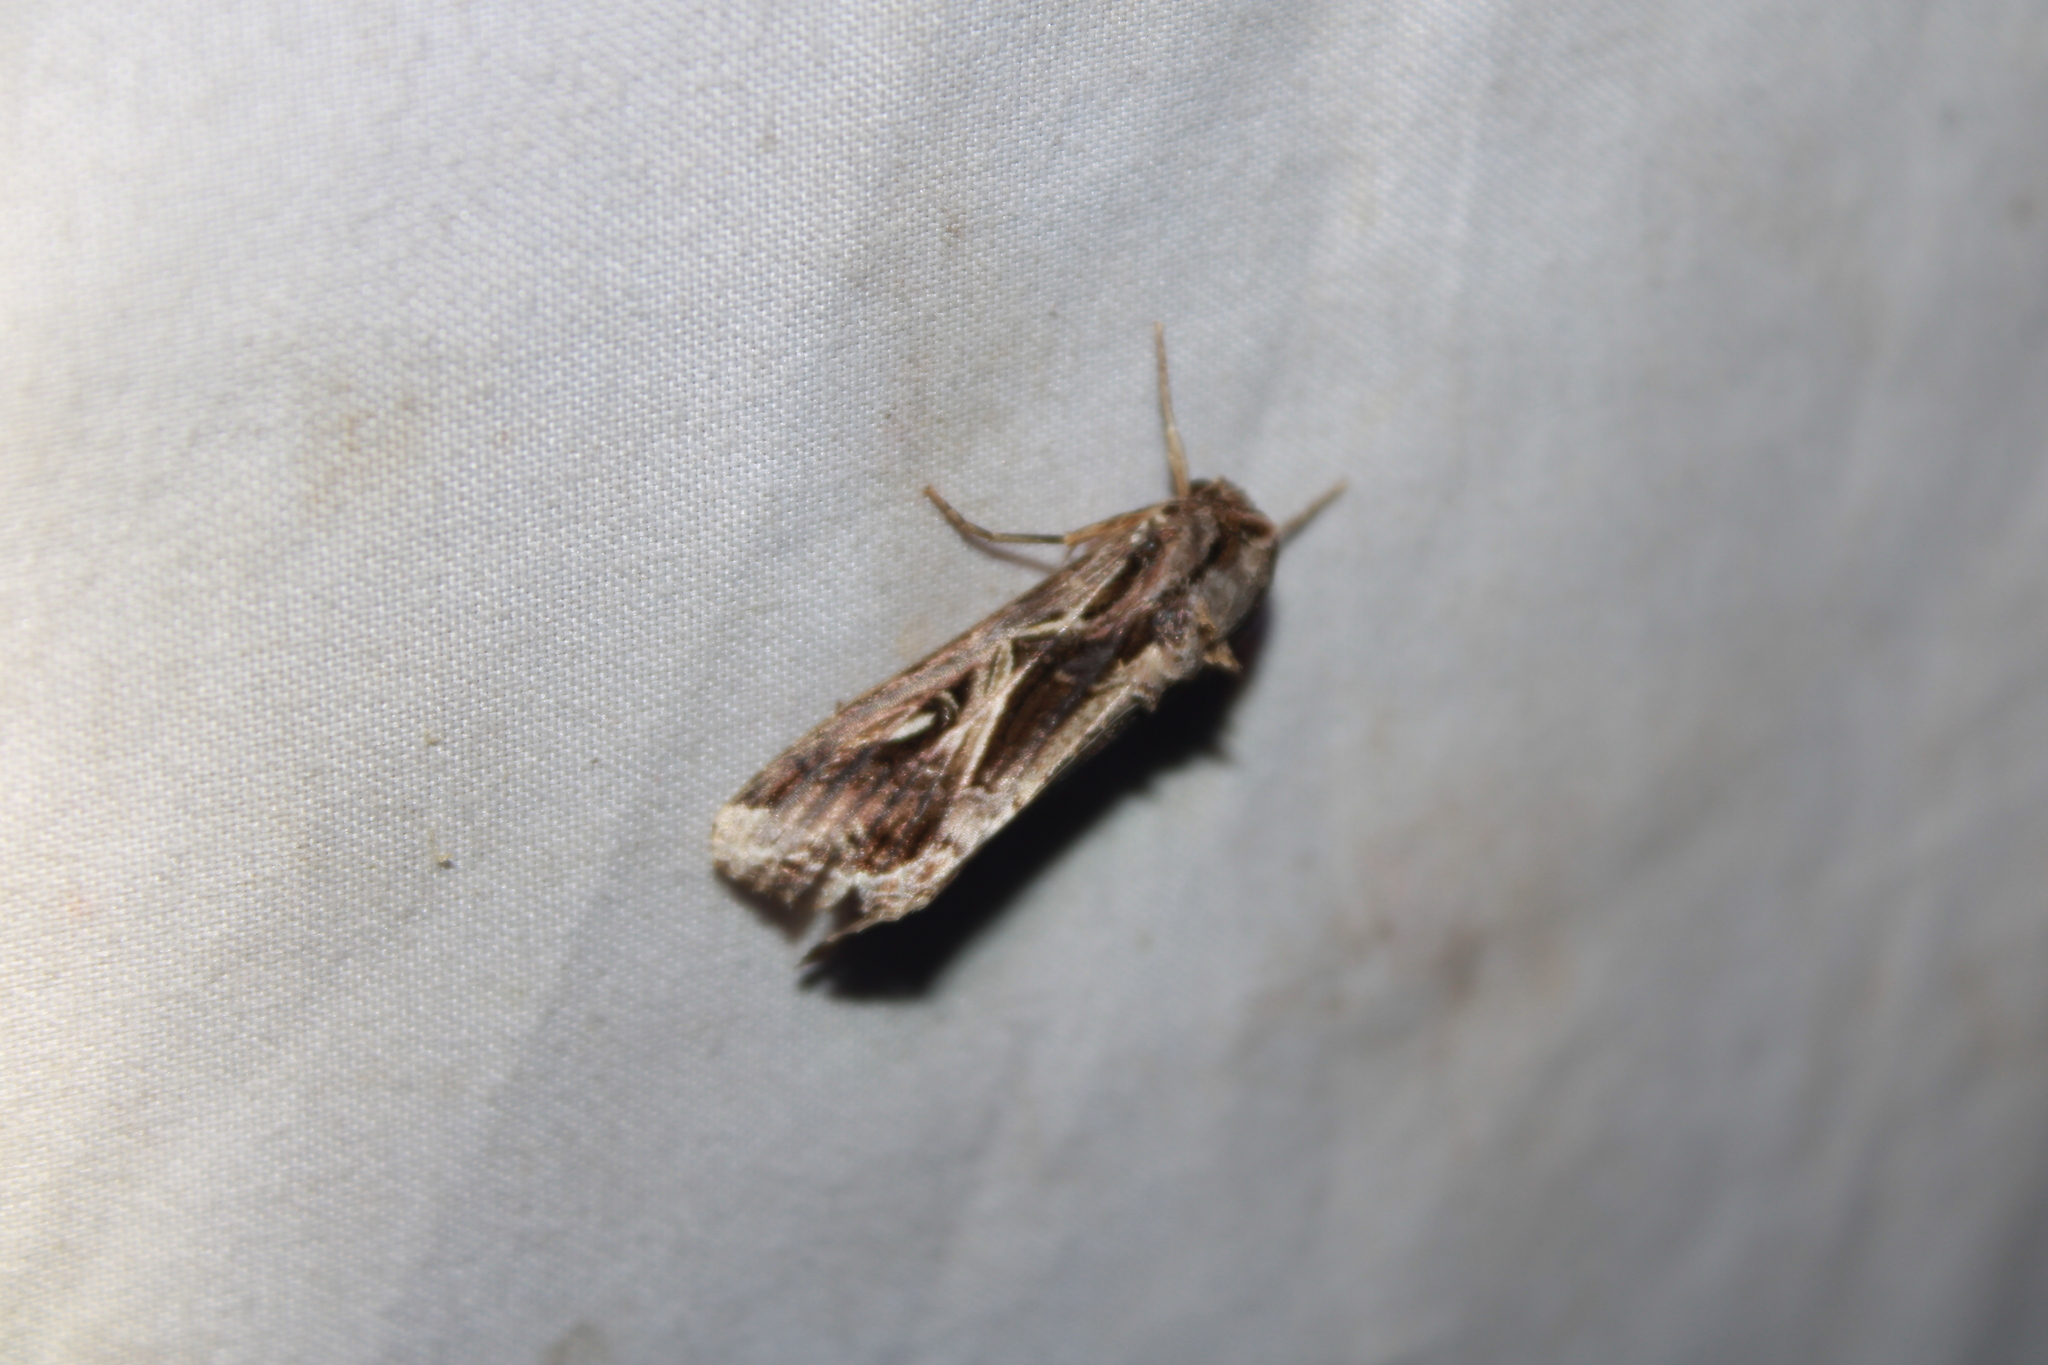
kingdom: Animalia
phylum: Arthropoda
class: Insecta
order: Lepidoptera
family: Noctuidae
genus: Spodoptera
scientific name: Spodoptera dolichos
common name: Sweetpotato armyworm
